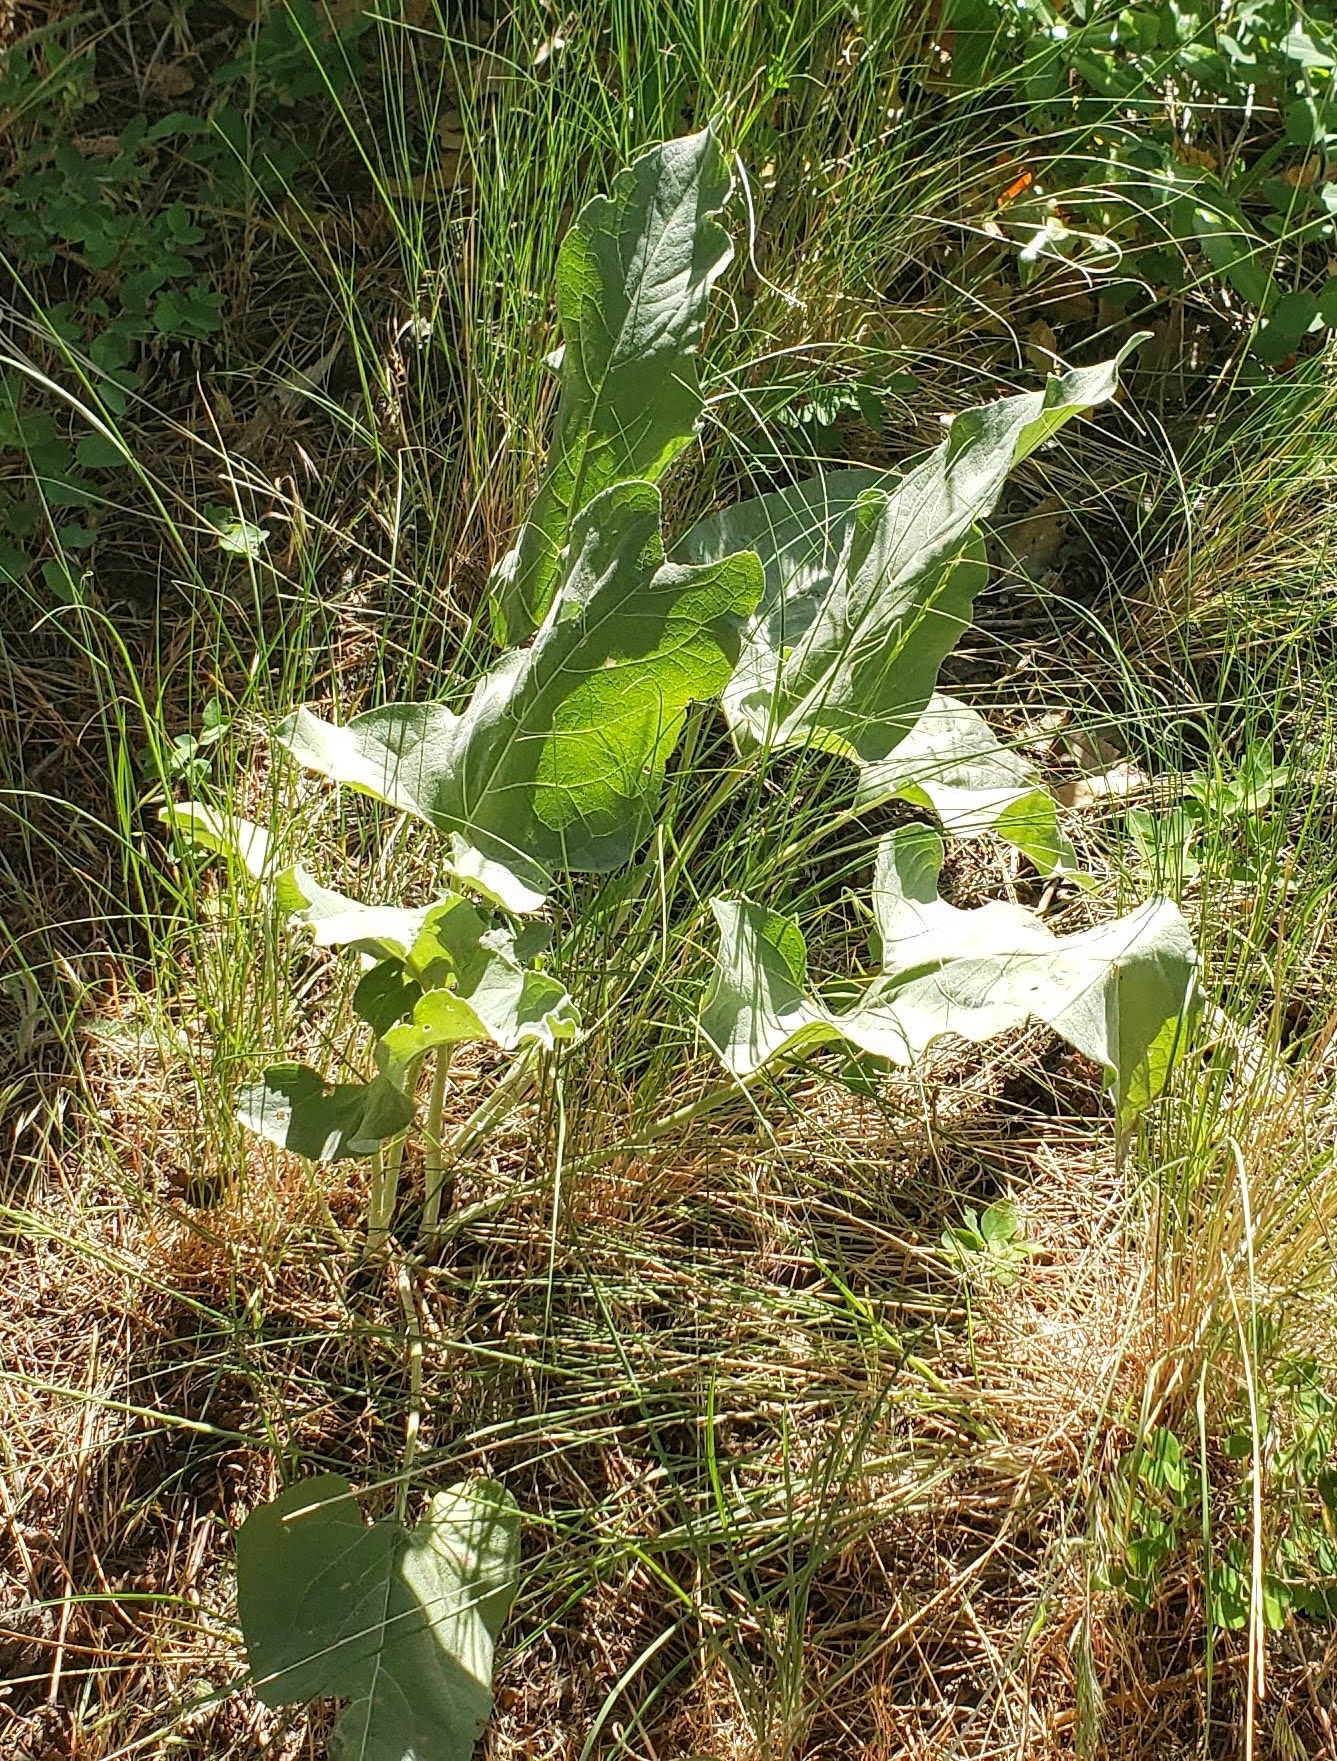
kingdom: Plantae
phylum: Tracheophyta
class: Magnoliopsida
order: Asterales
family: Asteraceae
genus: Wyethia
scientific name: Wyethia sagittata
